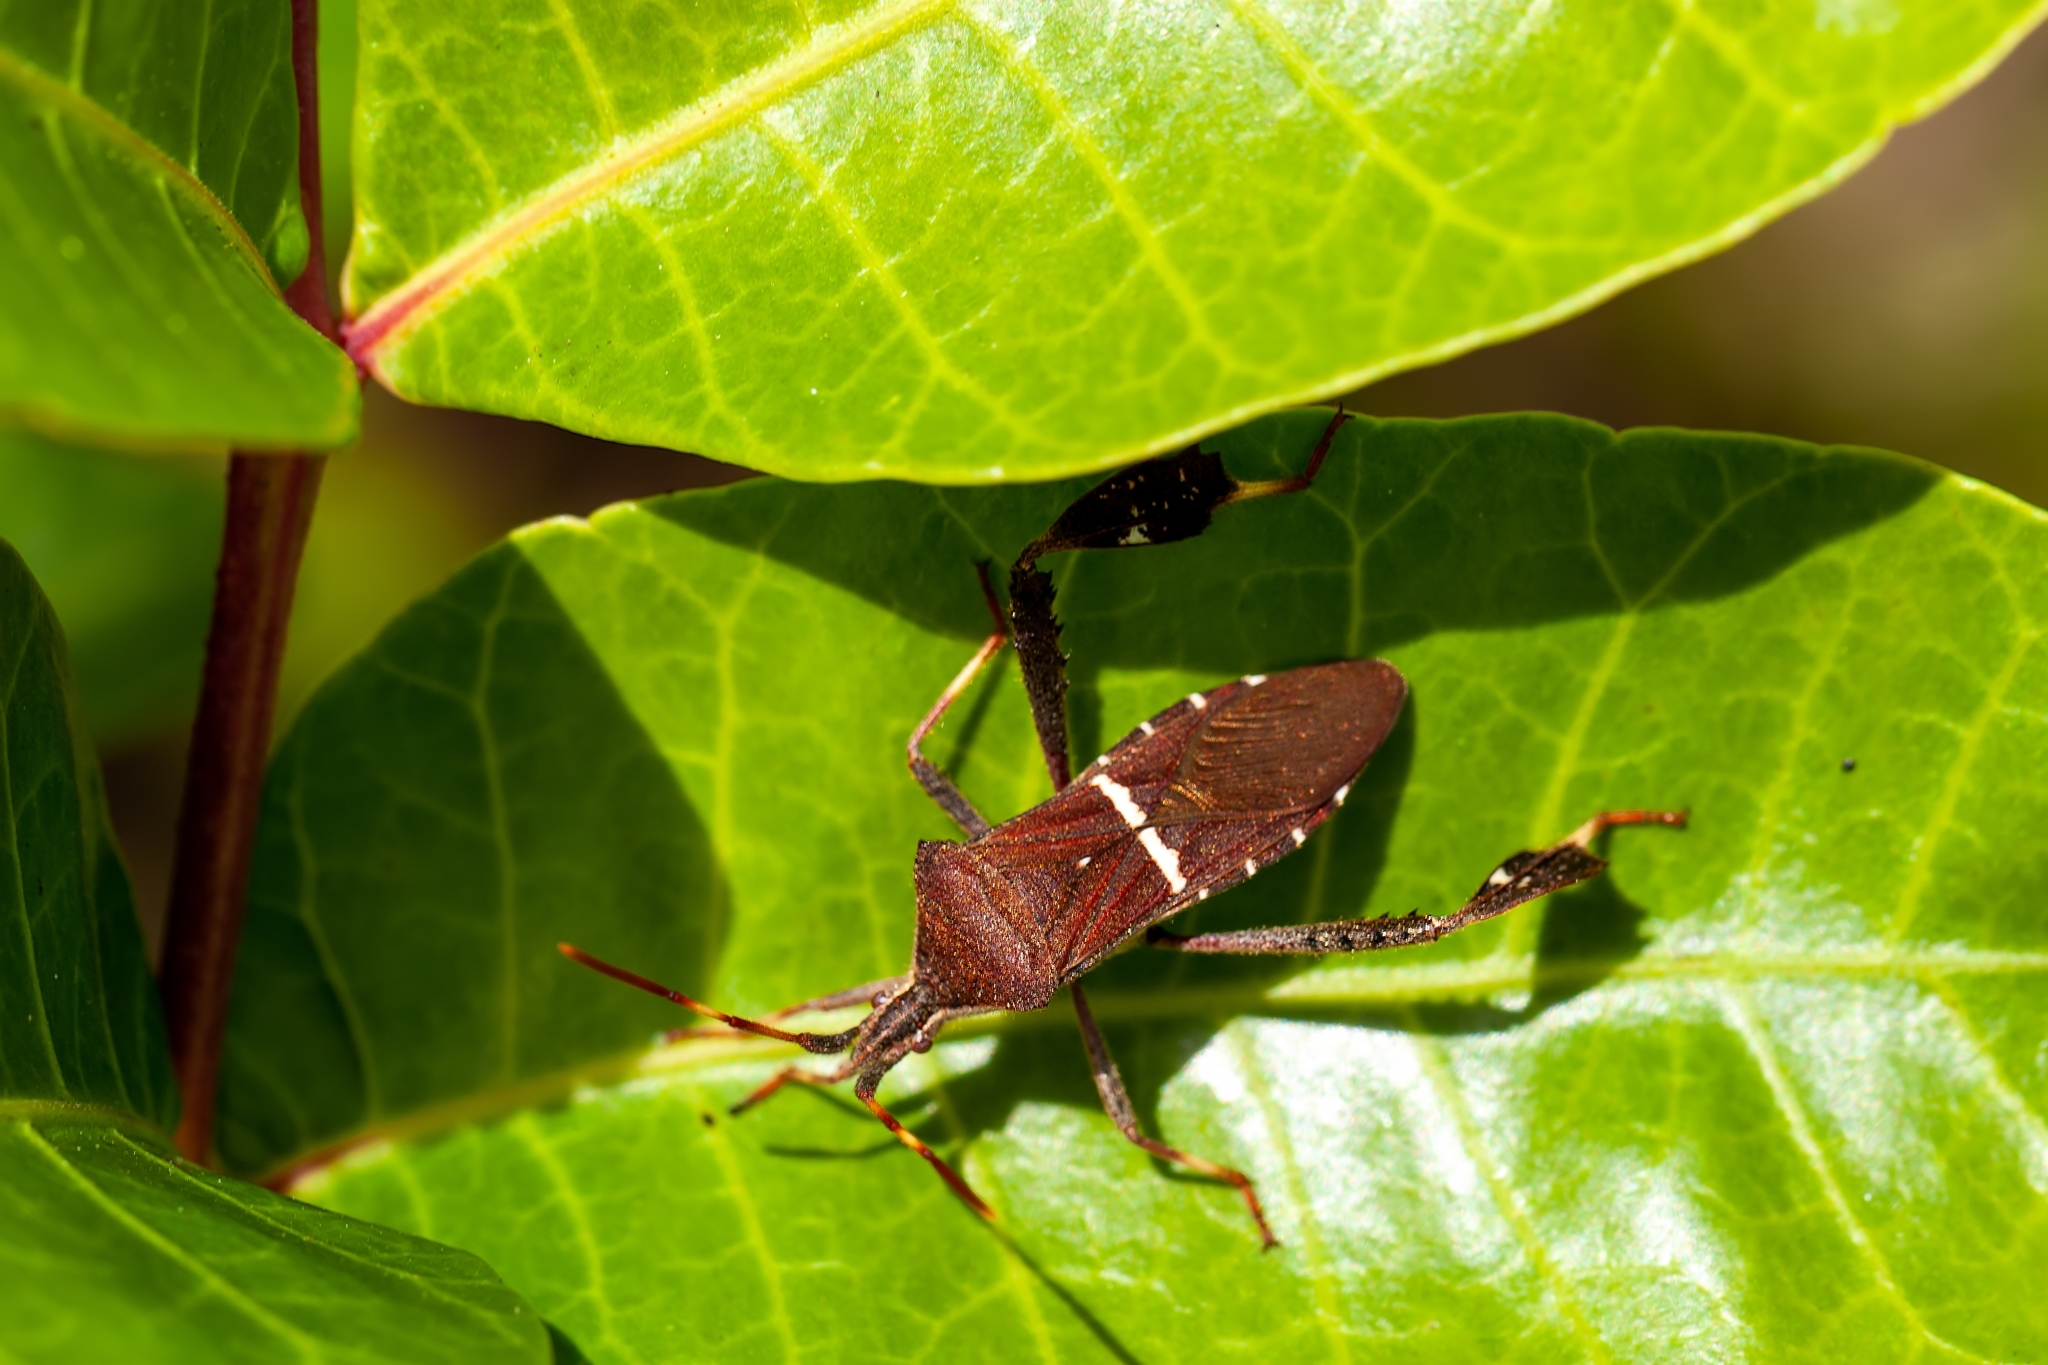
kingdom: Animalia
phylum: Arthropoda
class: Insecta
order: Hemiptera
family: Coreidae
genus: Leptoglossus
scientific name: Leptoglossus phyllopus
